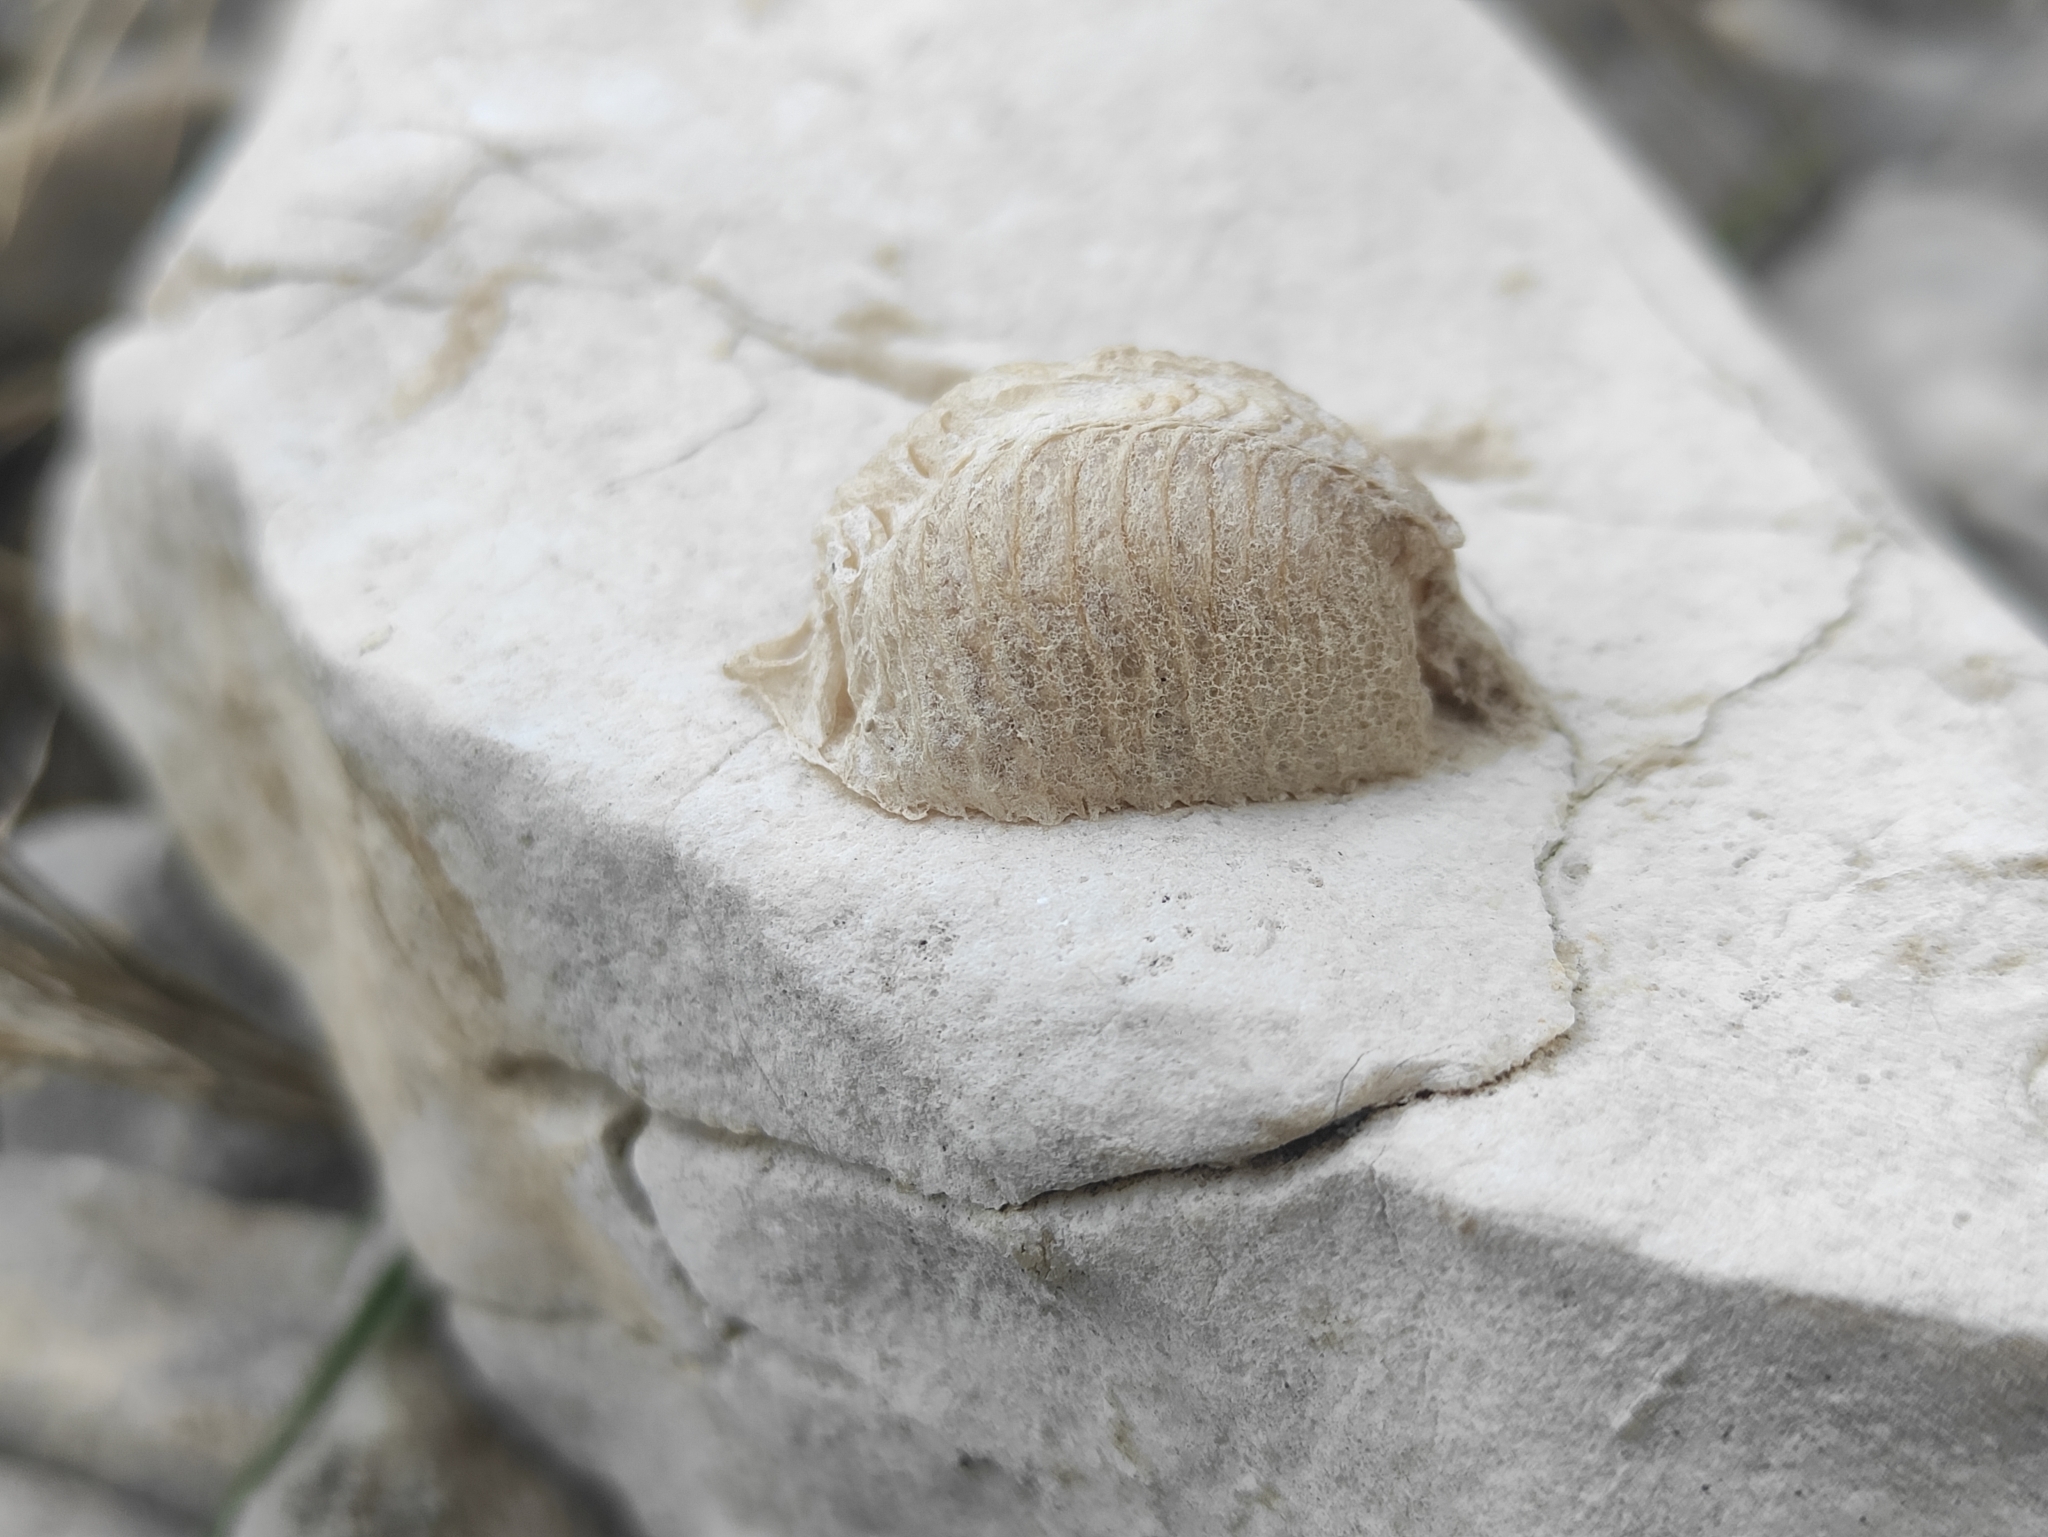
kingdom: Animalia
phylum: Arthropoda
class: Insecta
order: Mantodea
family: Mantidae
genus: Mantis
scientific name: Mantis religiosa
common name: Praying mantis
